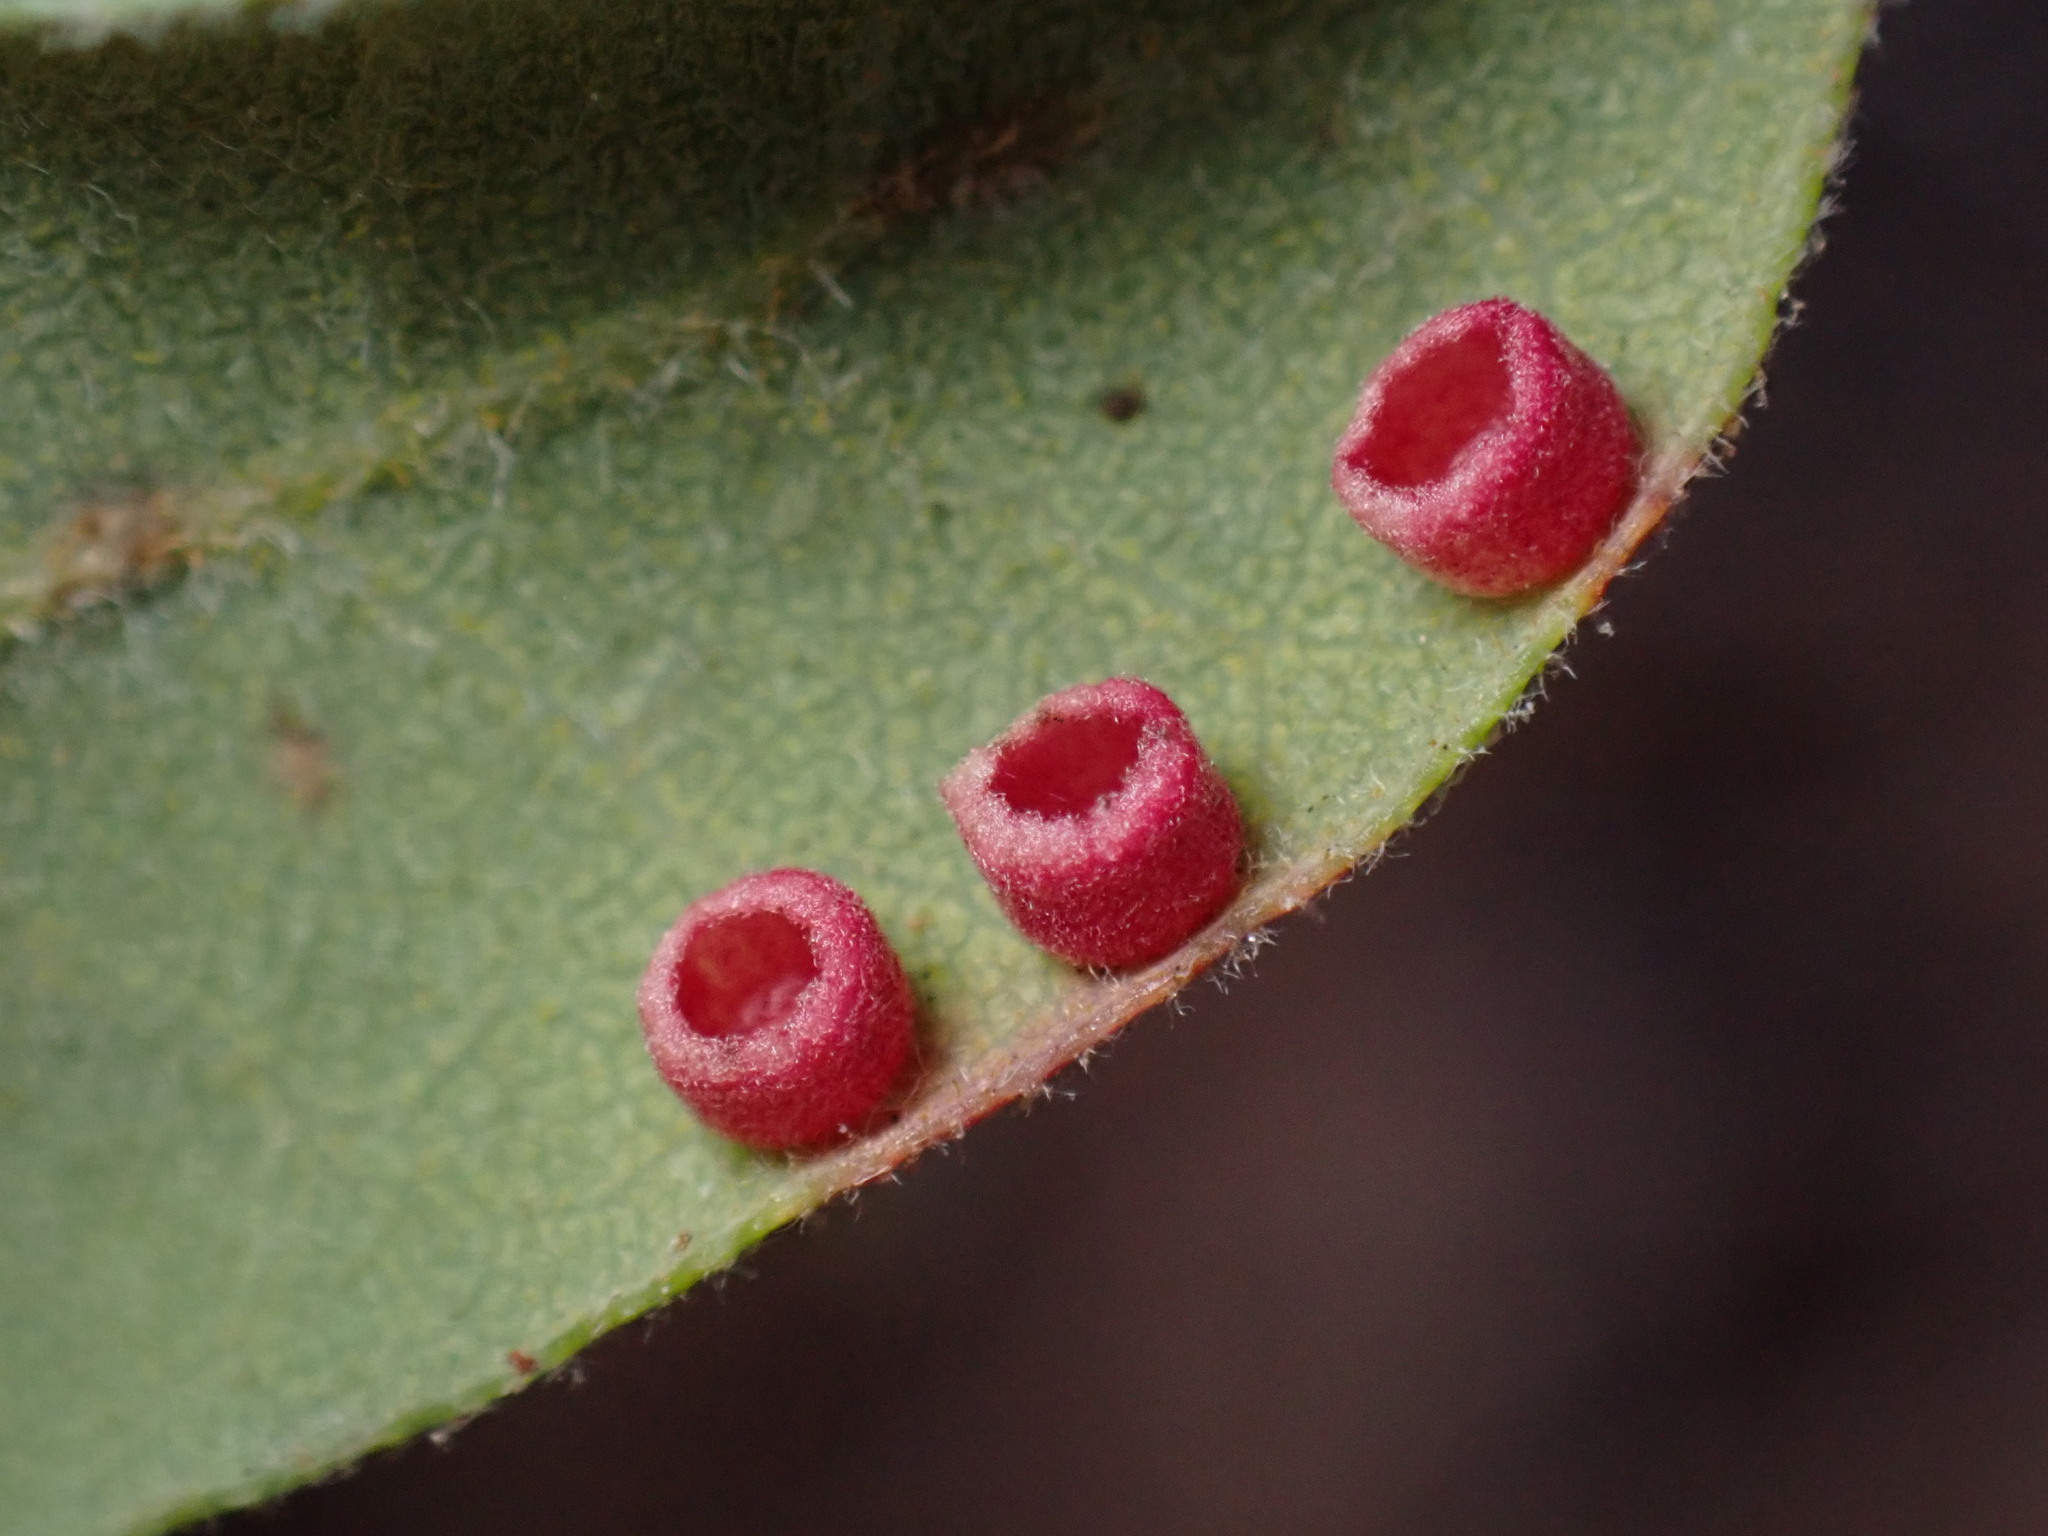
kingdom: Animalia
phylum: Arthropoda
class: Insecta
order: Hymenoptera
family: Cynipidae
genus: Phylloteras
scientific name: Phylloteras
